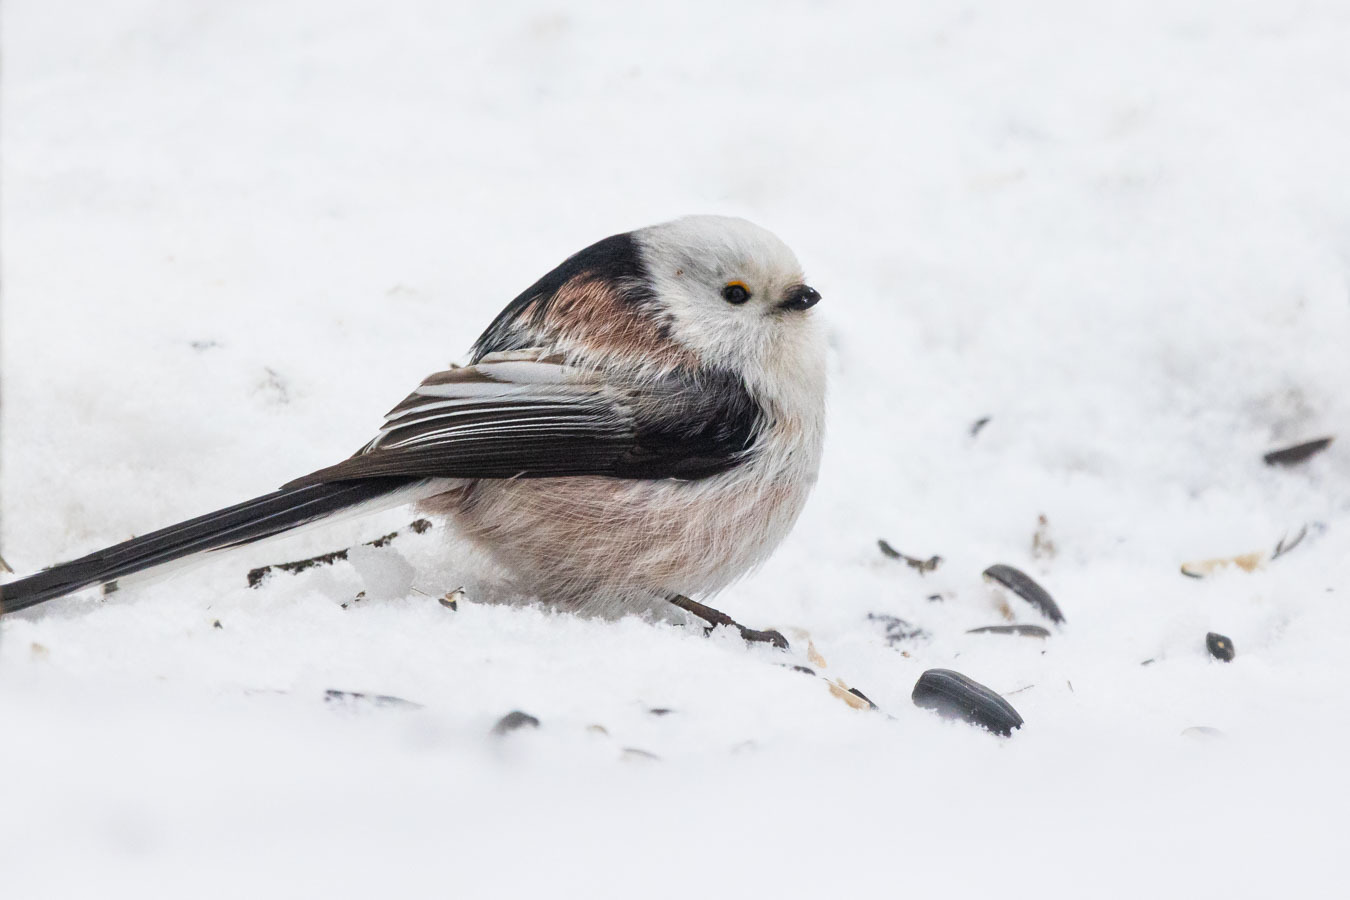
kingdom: Animalia
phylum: Chordata
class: Aves
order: Passeriformes
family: Aegithalidae
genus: Aegithalos
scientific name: Aegithalos caudatus
